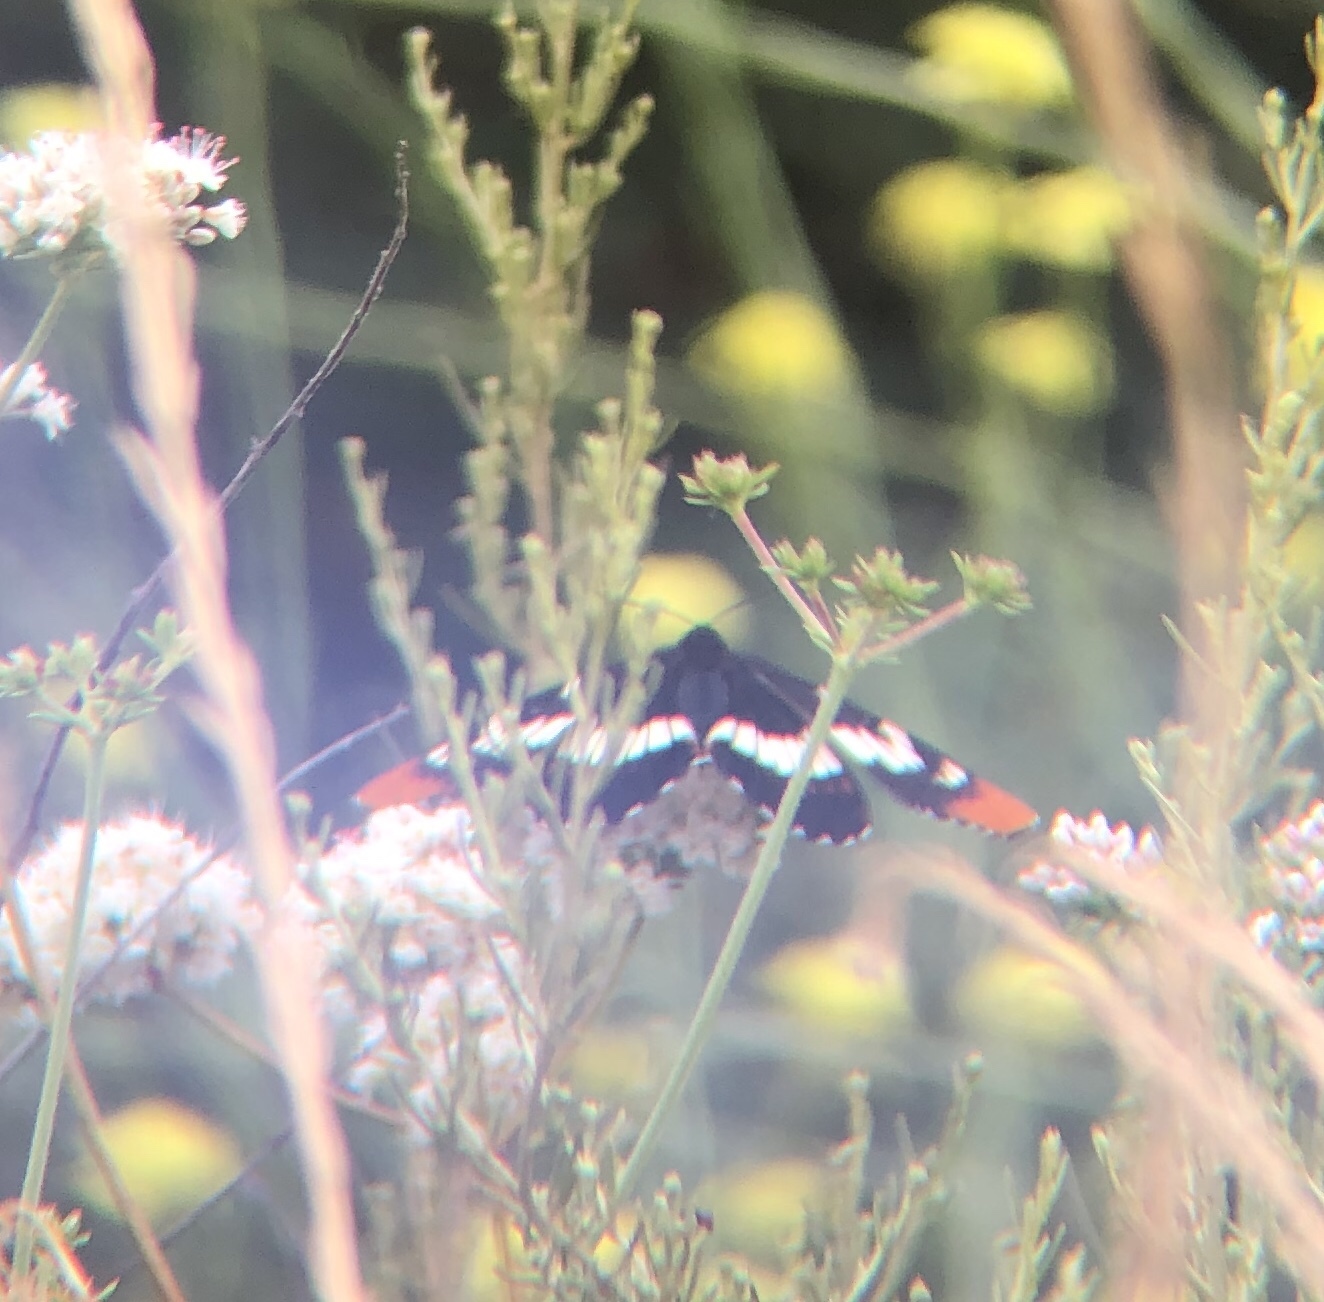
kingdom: Animalia
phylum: Arthropoda
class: Insecta
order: Lepidoptera
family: Nymphalidae
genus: Limenitis
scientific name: Limenitis lorquini
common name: Lorquin's admiral
